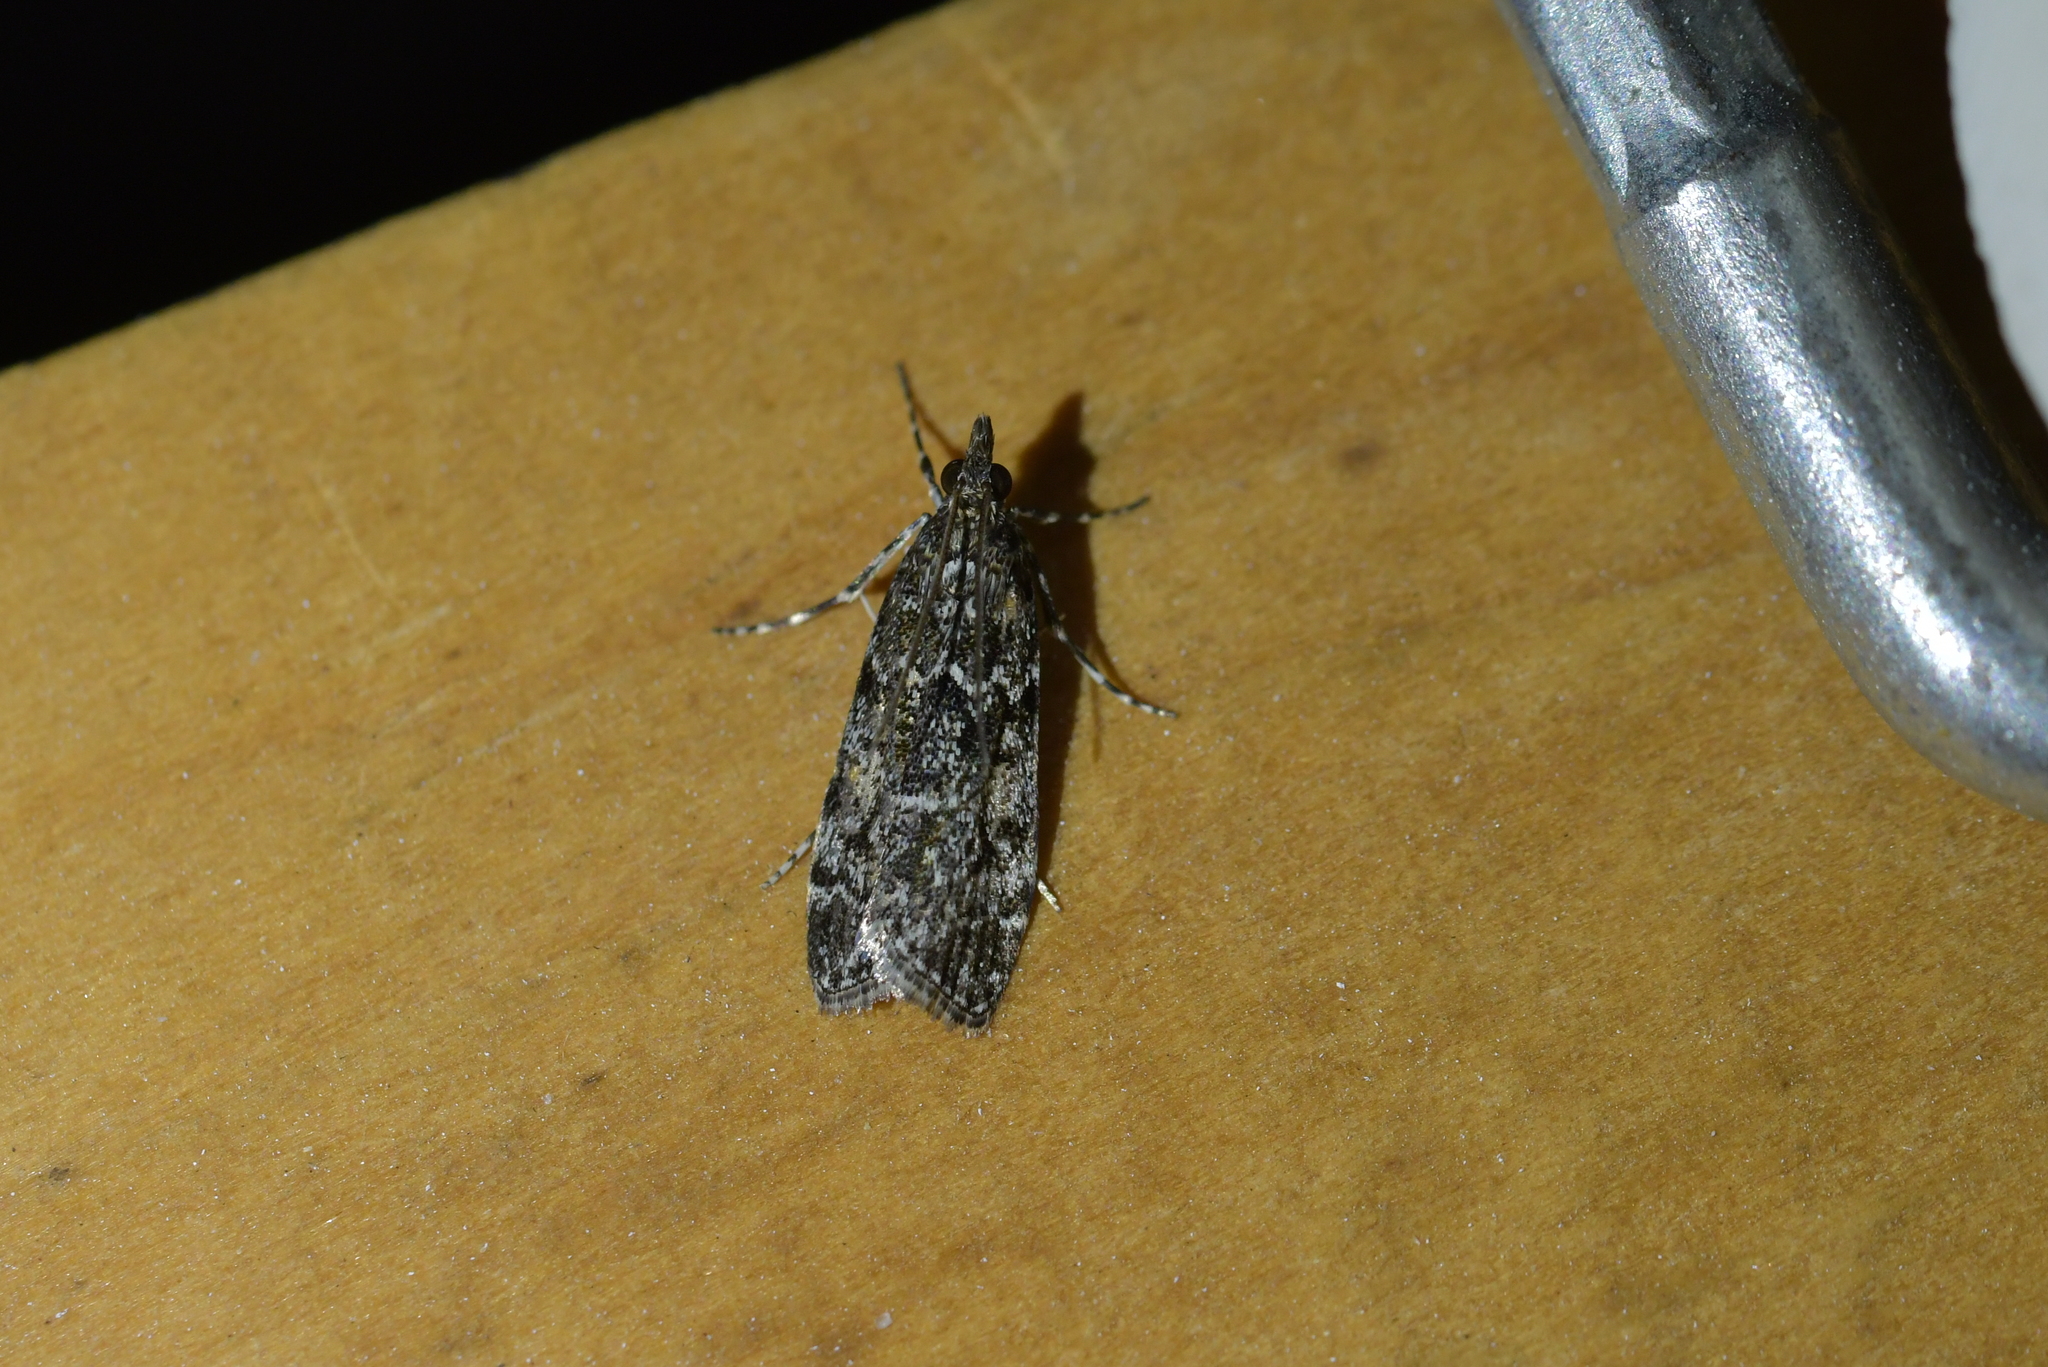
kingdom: Animalia
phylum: Arthropoda
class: Insecta
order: Lepidoptera
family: Crambidae
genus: Eudonia
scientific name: Eudonia philerga
